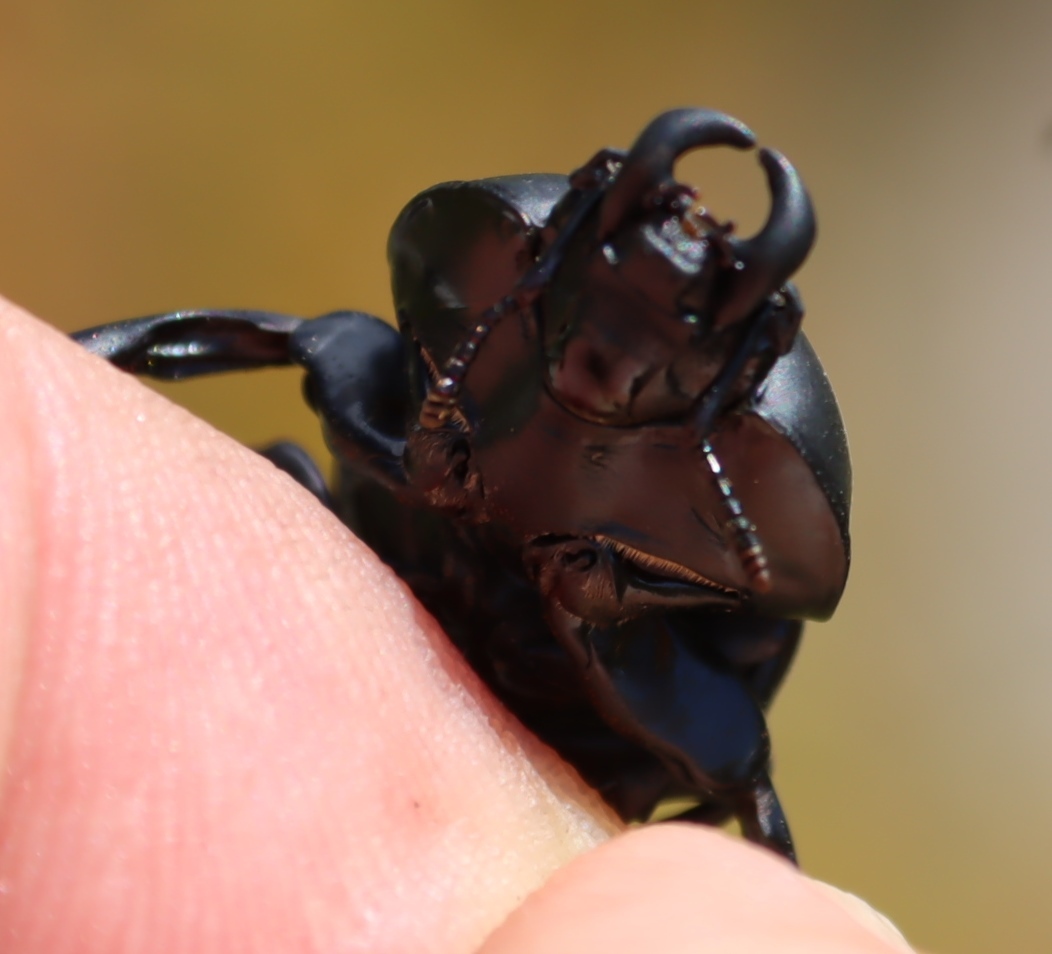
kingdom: Animalia
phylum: Arthropoda
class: Insecta
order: Coleoptera
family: Lucanidae
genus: Colophon
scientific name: Colophon stokoei
